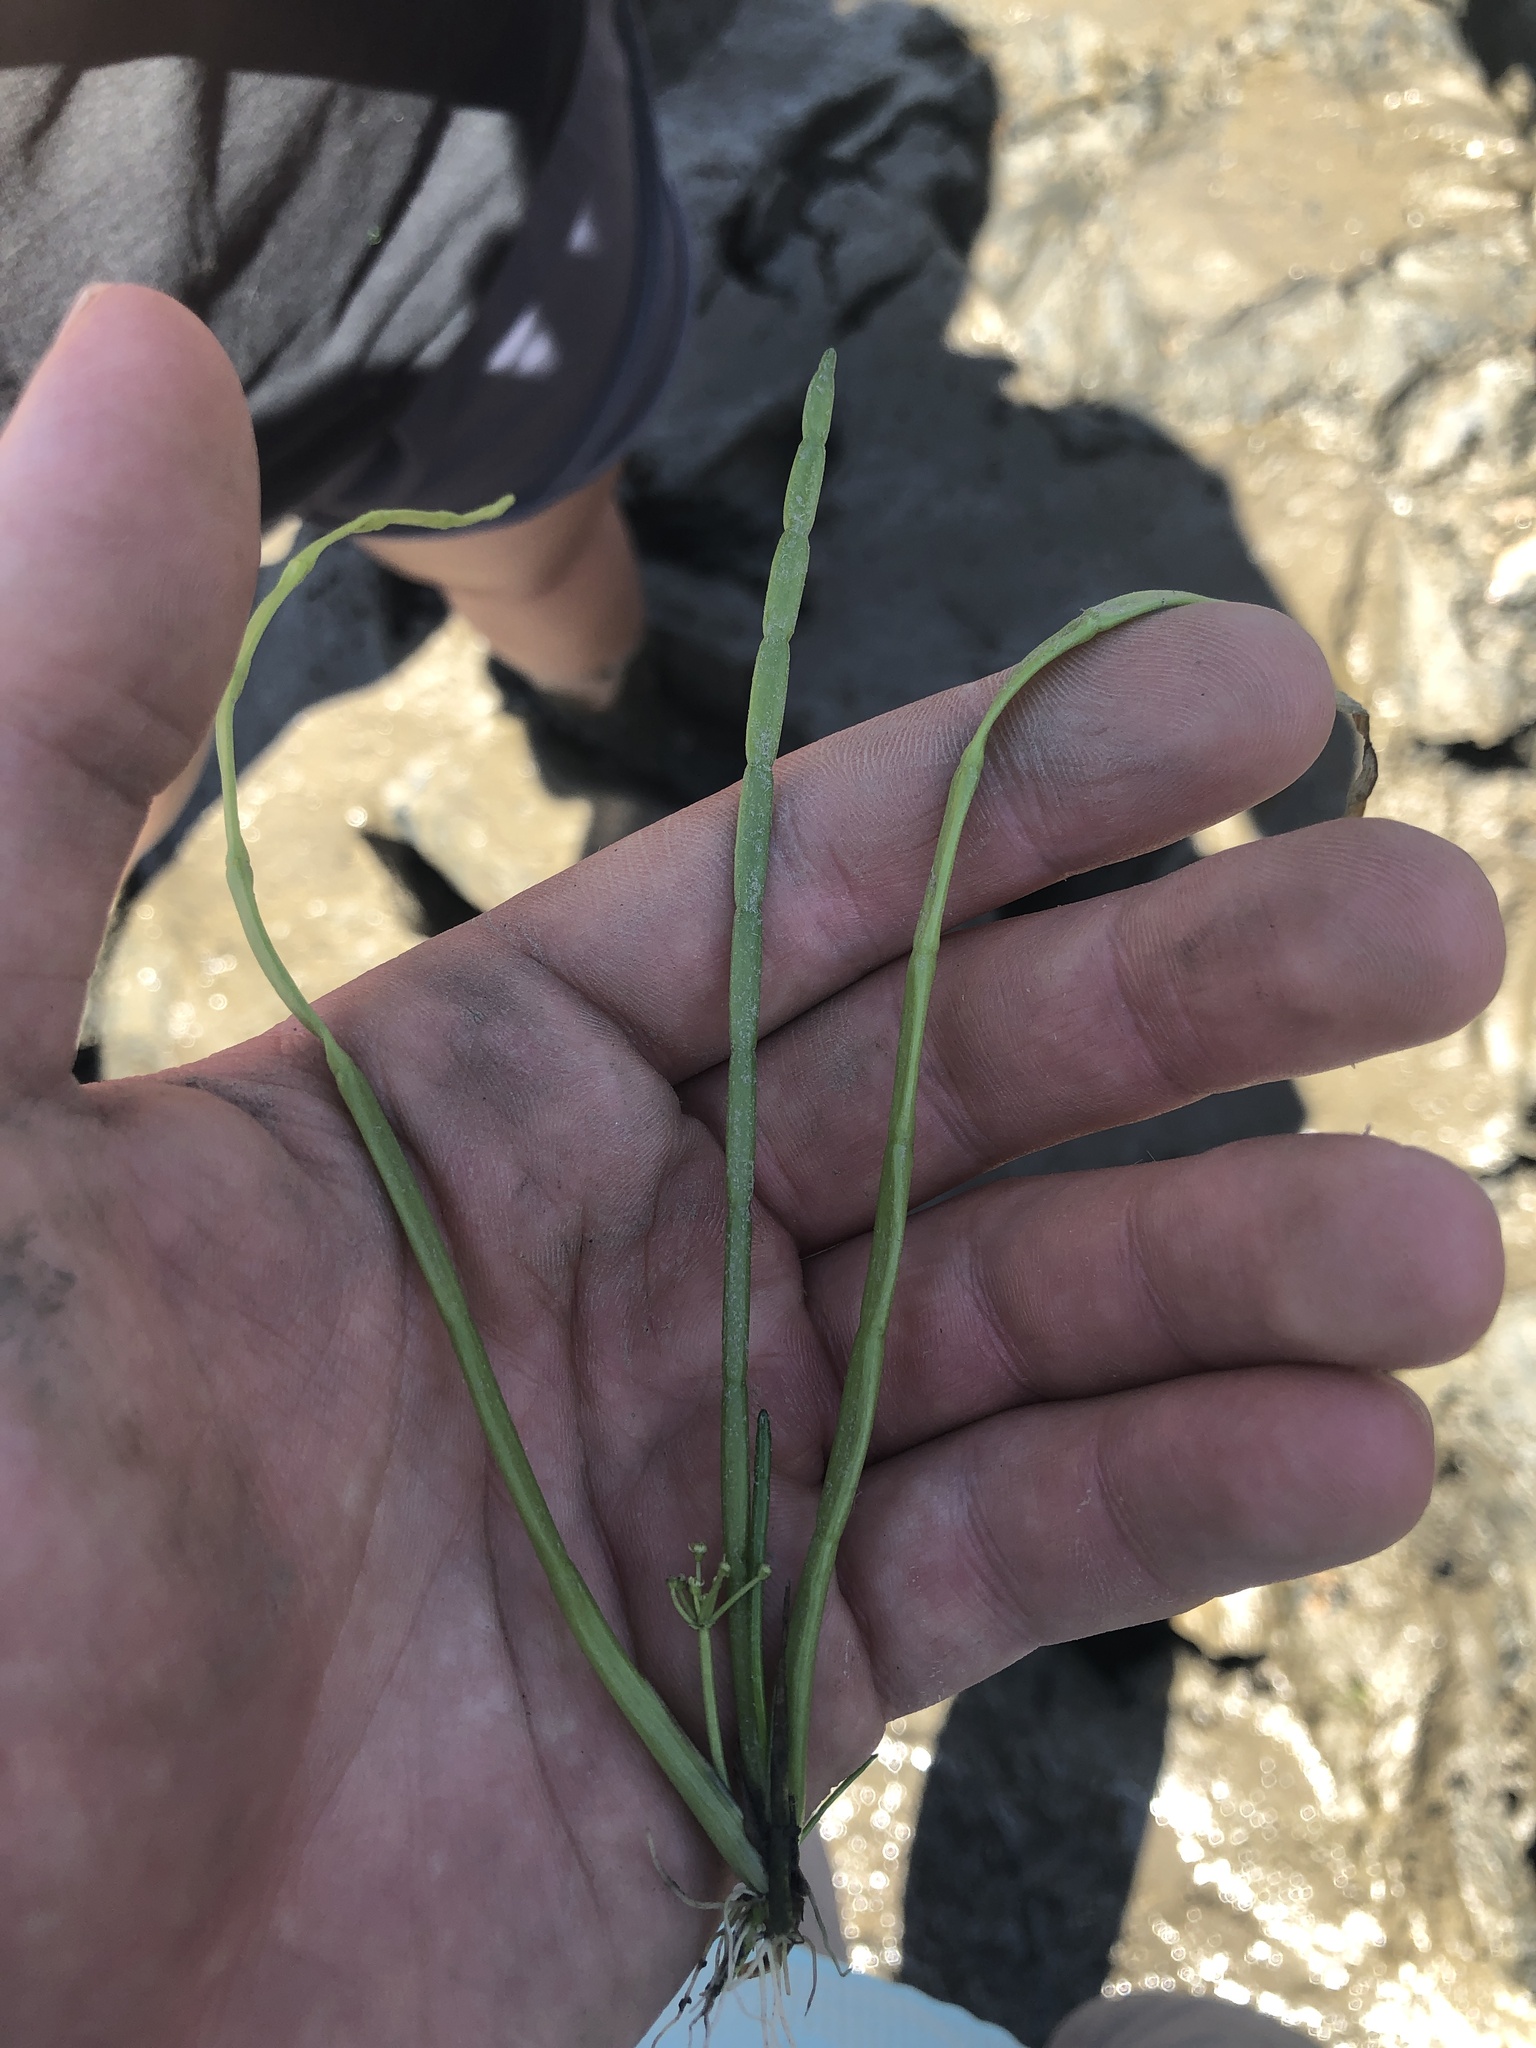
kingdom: Plantae
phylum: Tracheophyta
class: Magnoliopsida
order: Apiales
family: Apiaceae
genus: Lilaeopsis
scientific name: Lilaeopsis occidentalis
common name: Western grasswort
